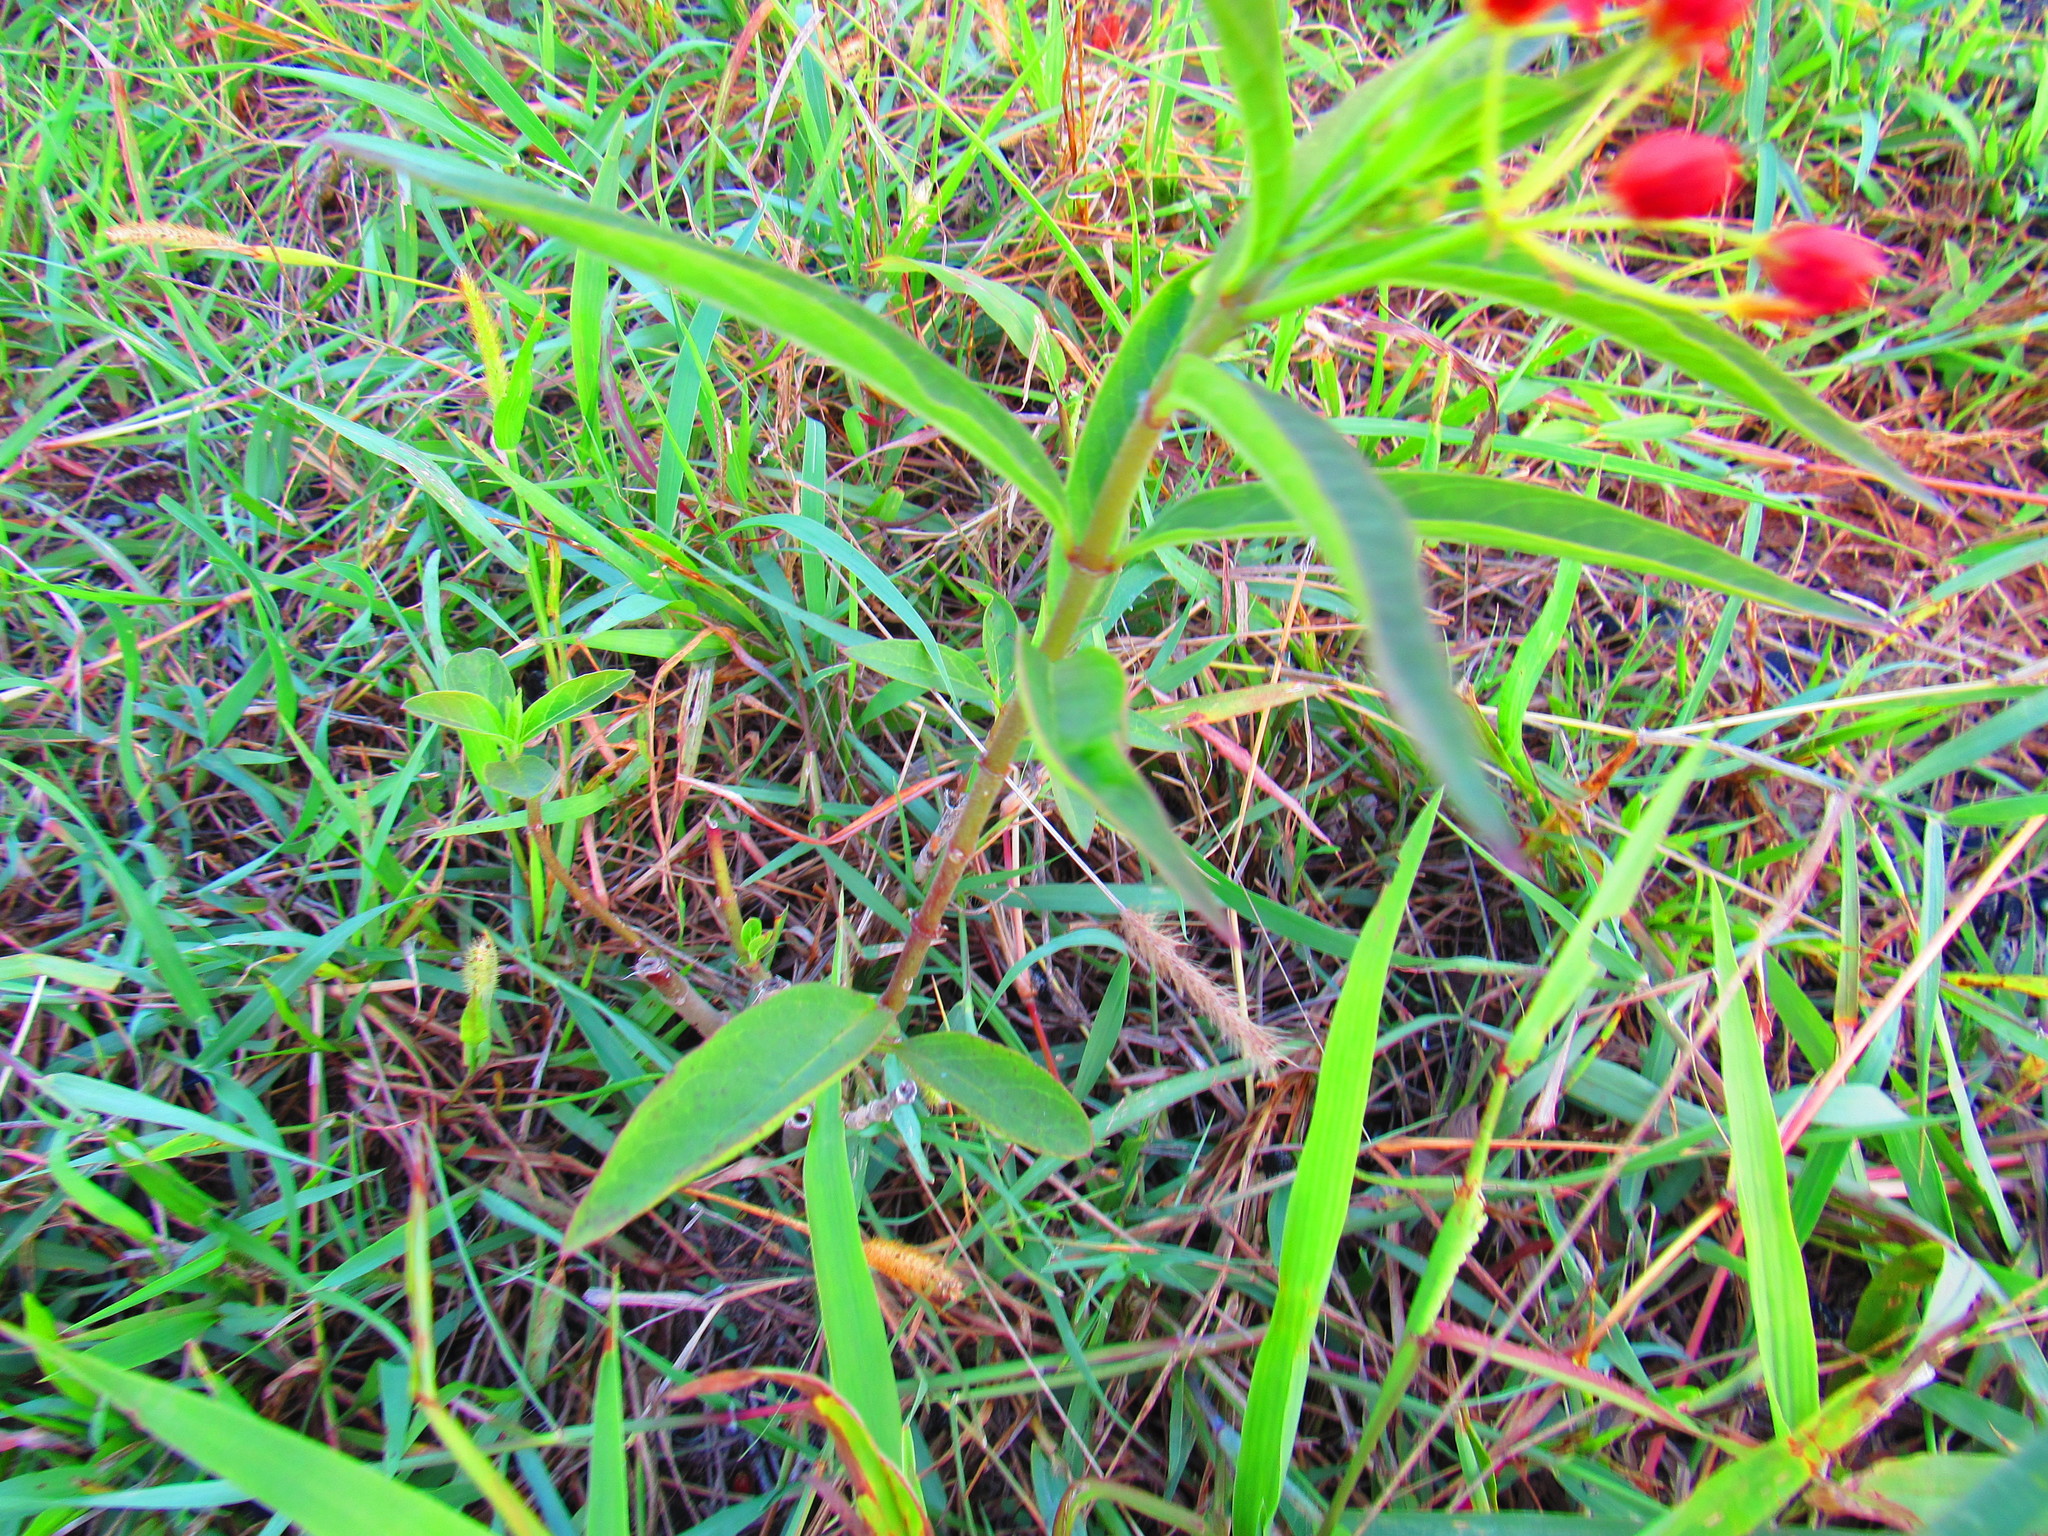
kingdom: Plantae
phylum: Tracheophyta
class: Magnoliopsida
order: Gentianales
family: Apocynaceae
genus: Asclepias
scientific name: Asclepias curassavica
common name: Bloodflower
